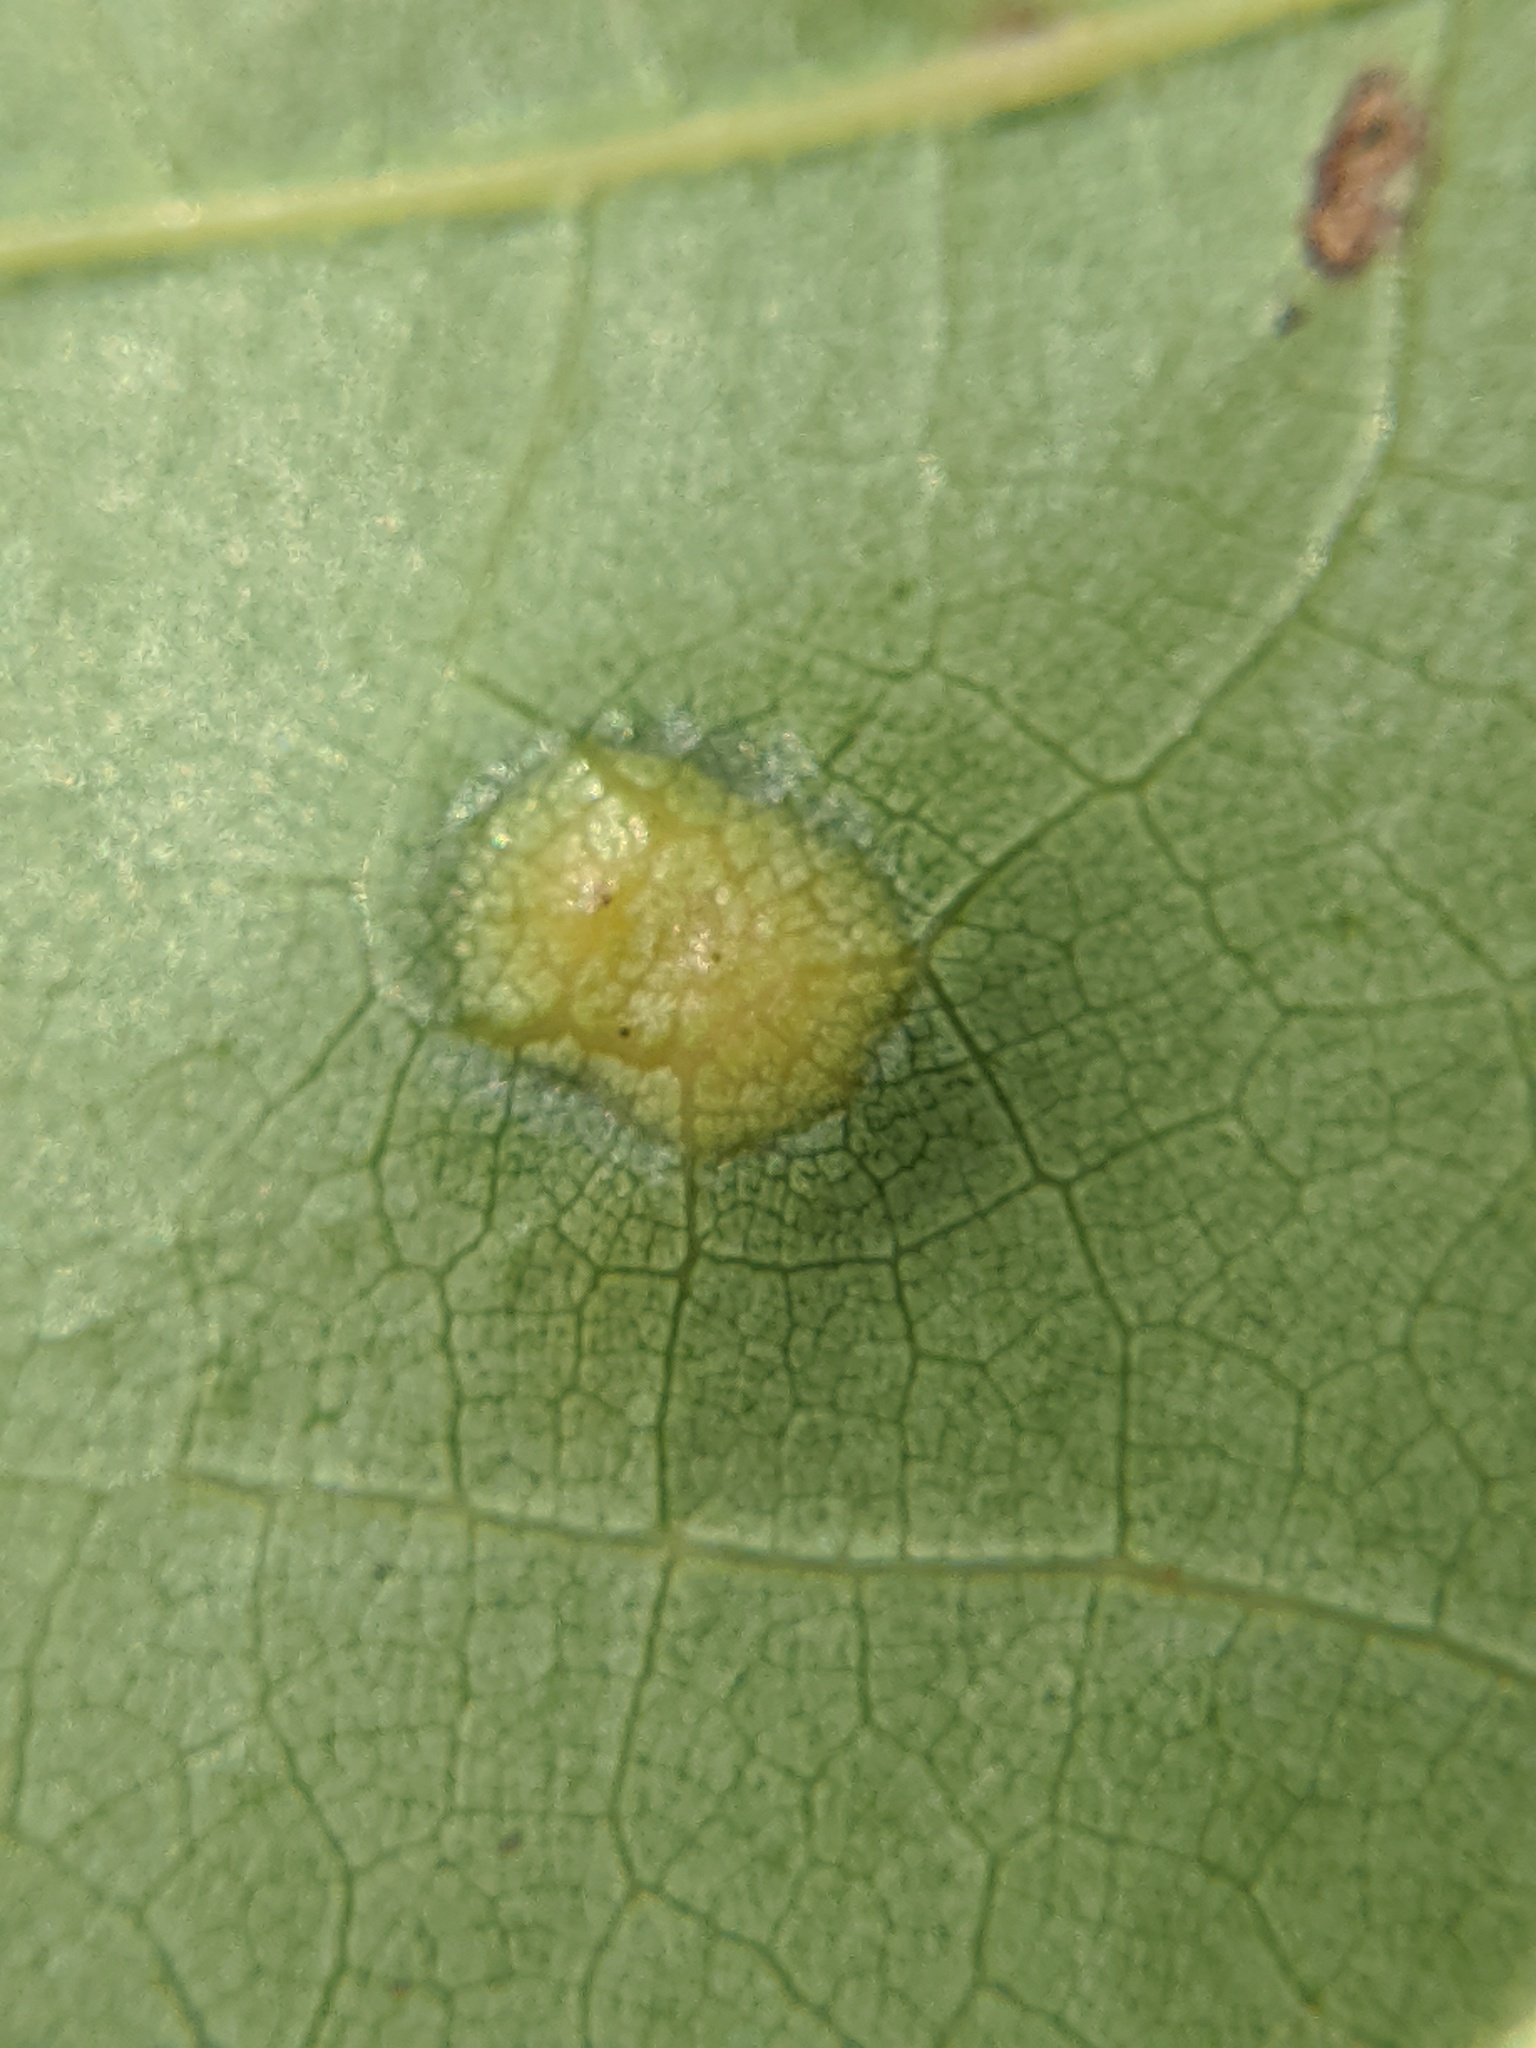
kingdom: Animalia
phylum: Arthropoda
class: Insecta
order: Diptera
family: Cecidomyiidae
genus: Polystepha
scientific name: Polystepha pilulae
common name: Oak leaf gall midge
